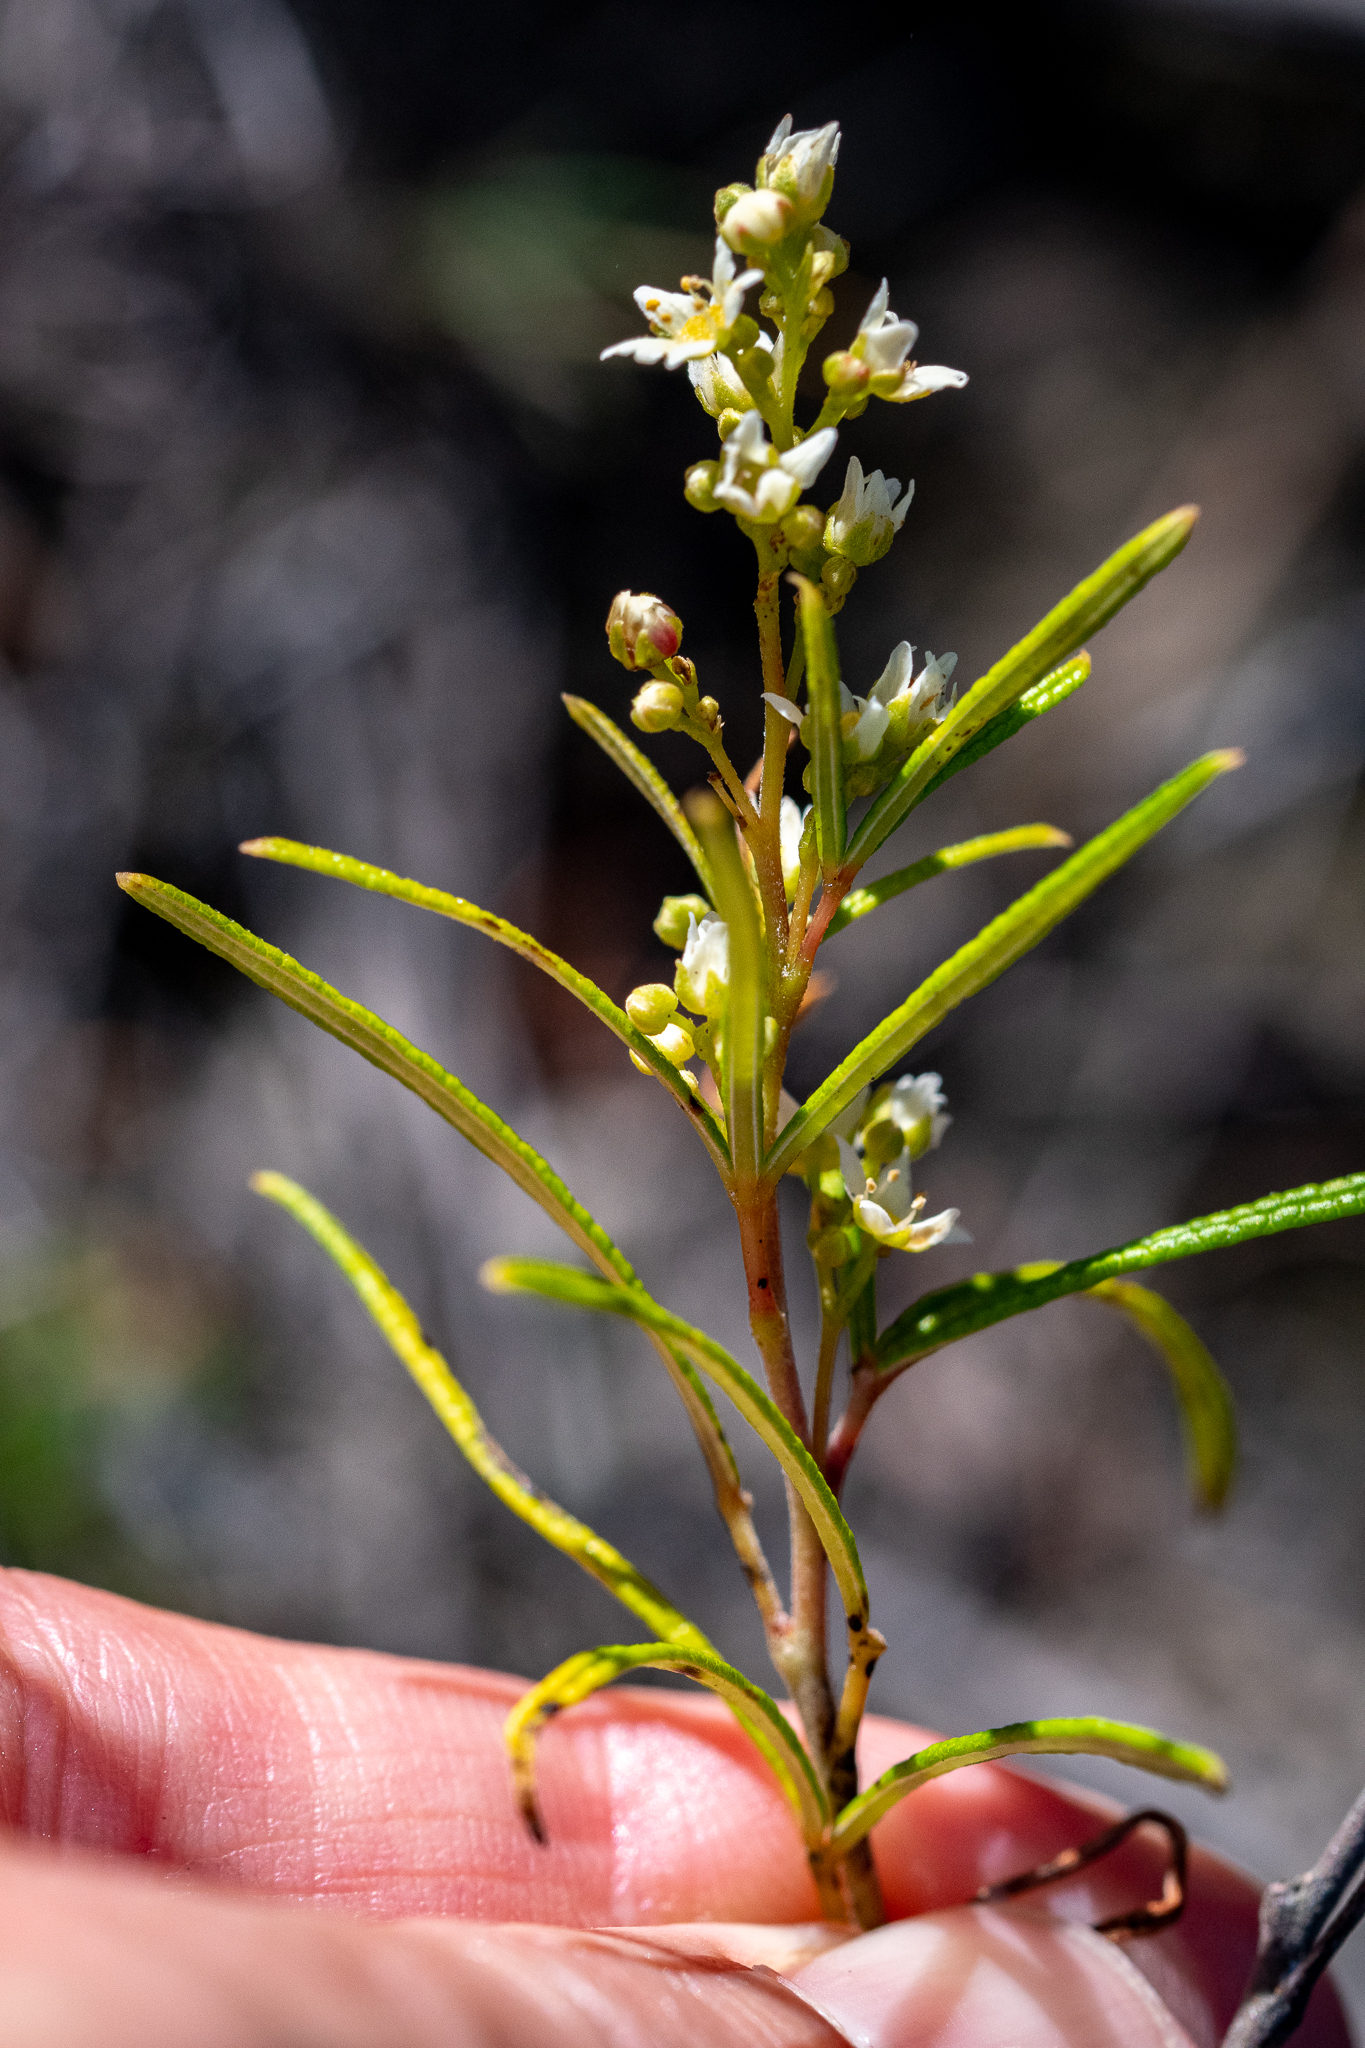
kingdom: Plantae
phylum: Tracheophyta
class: Magnoliopsida
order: Sapindales
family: Anacardiaceae
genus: Searsia
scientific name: Searsia rosmarinifolia
